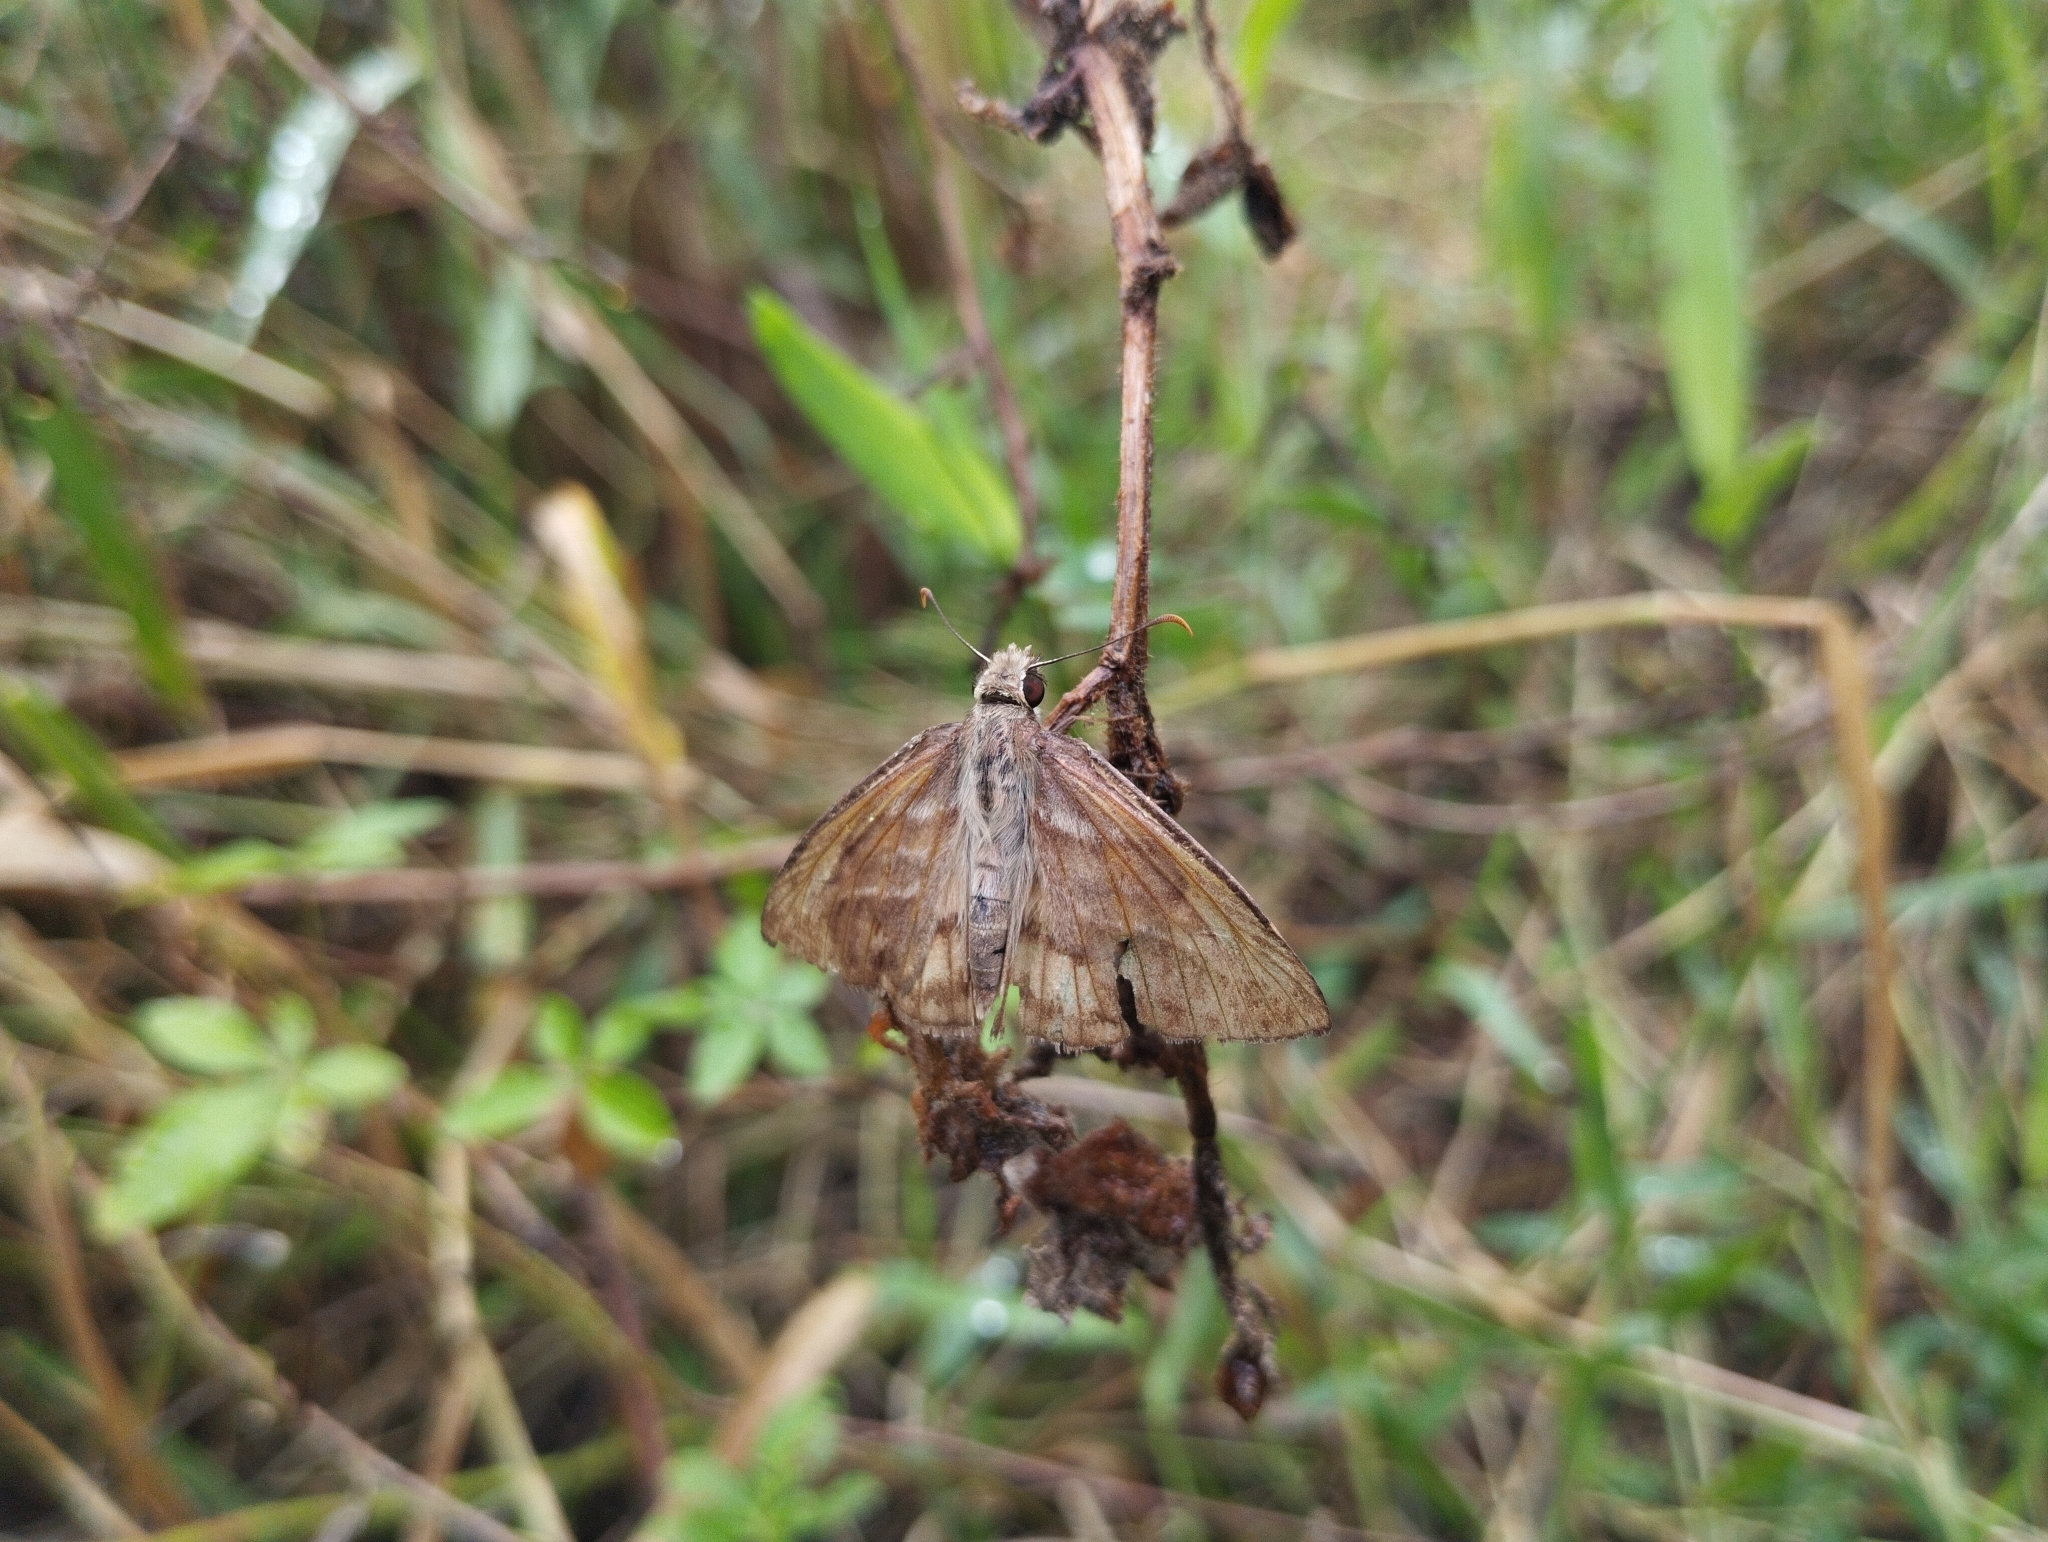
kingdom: Animalia
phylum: Arthropoda
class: Insecta
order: Lepidoptera
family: Hesperiidae
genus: Timochares
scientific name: Timochares trifasciata
